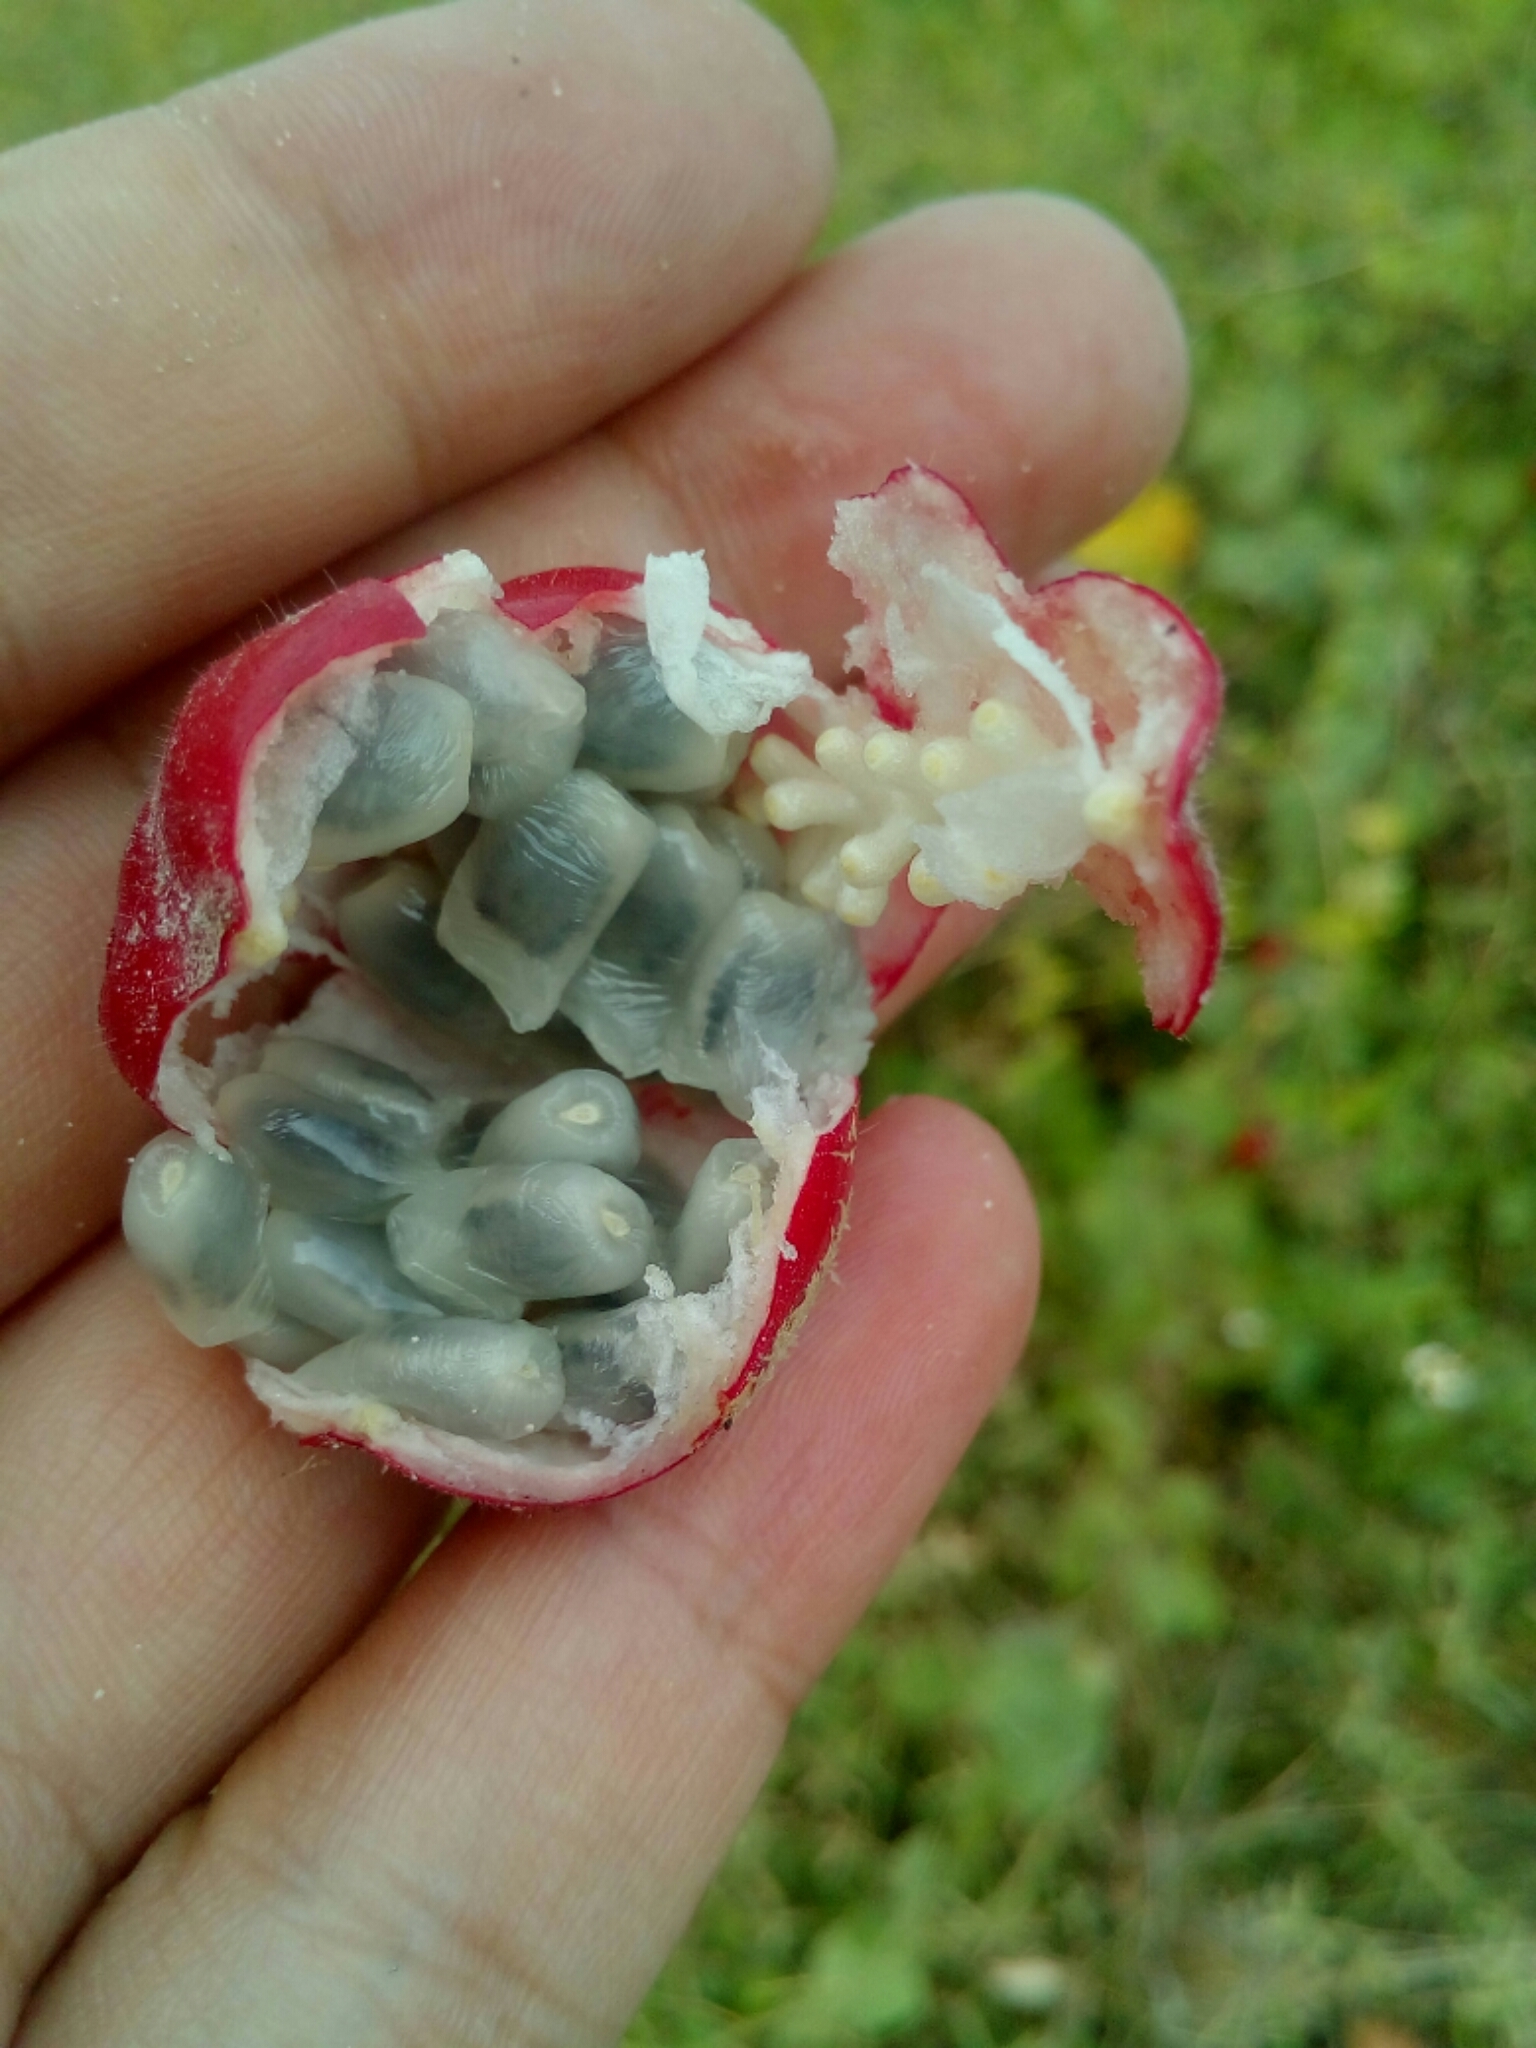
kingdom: Plantae
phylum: Tracheophyta
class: Magnoliopsida
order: Malpighiales
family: Passifloraceae
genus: Passiflora
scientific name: Passiflora foetida
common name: Fetid passionflower
